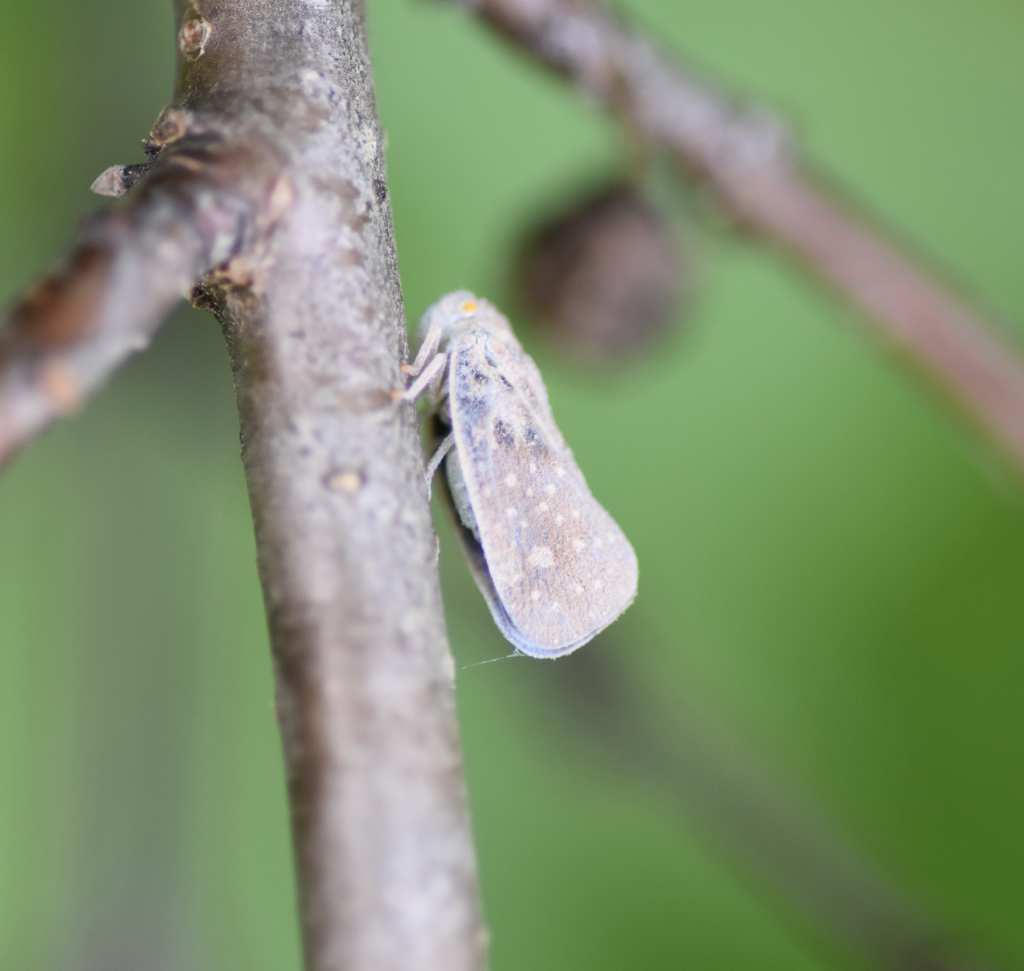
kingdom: Animalia
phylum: Arthropoda
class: Insecta
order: Hemiptera
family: Flatidae
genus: Metcalfa
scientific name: Metcalfa pruinosa
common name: Citrus flatid planthopper
